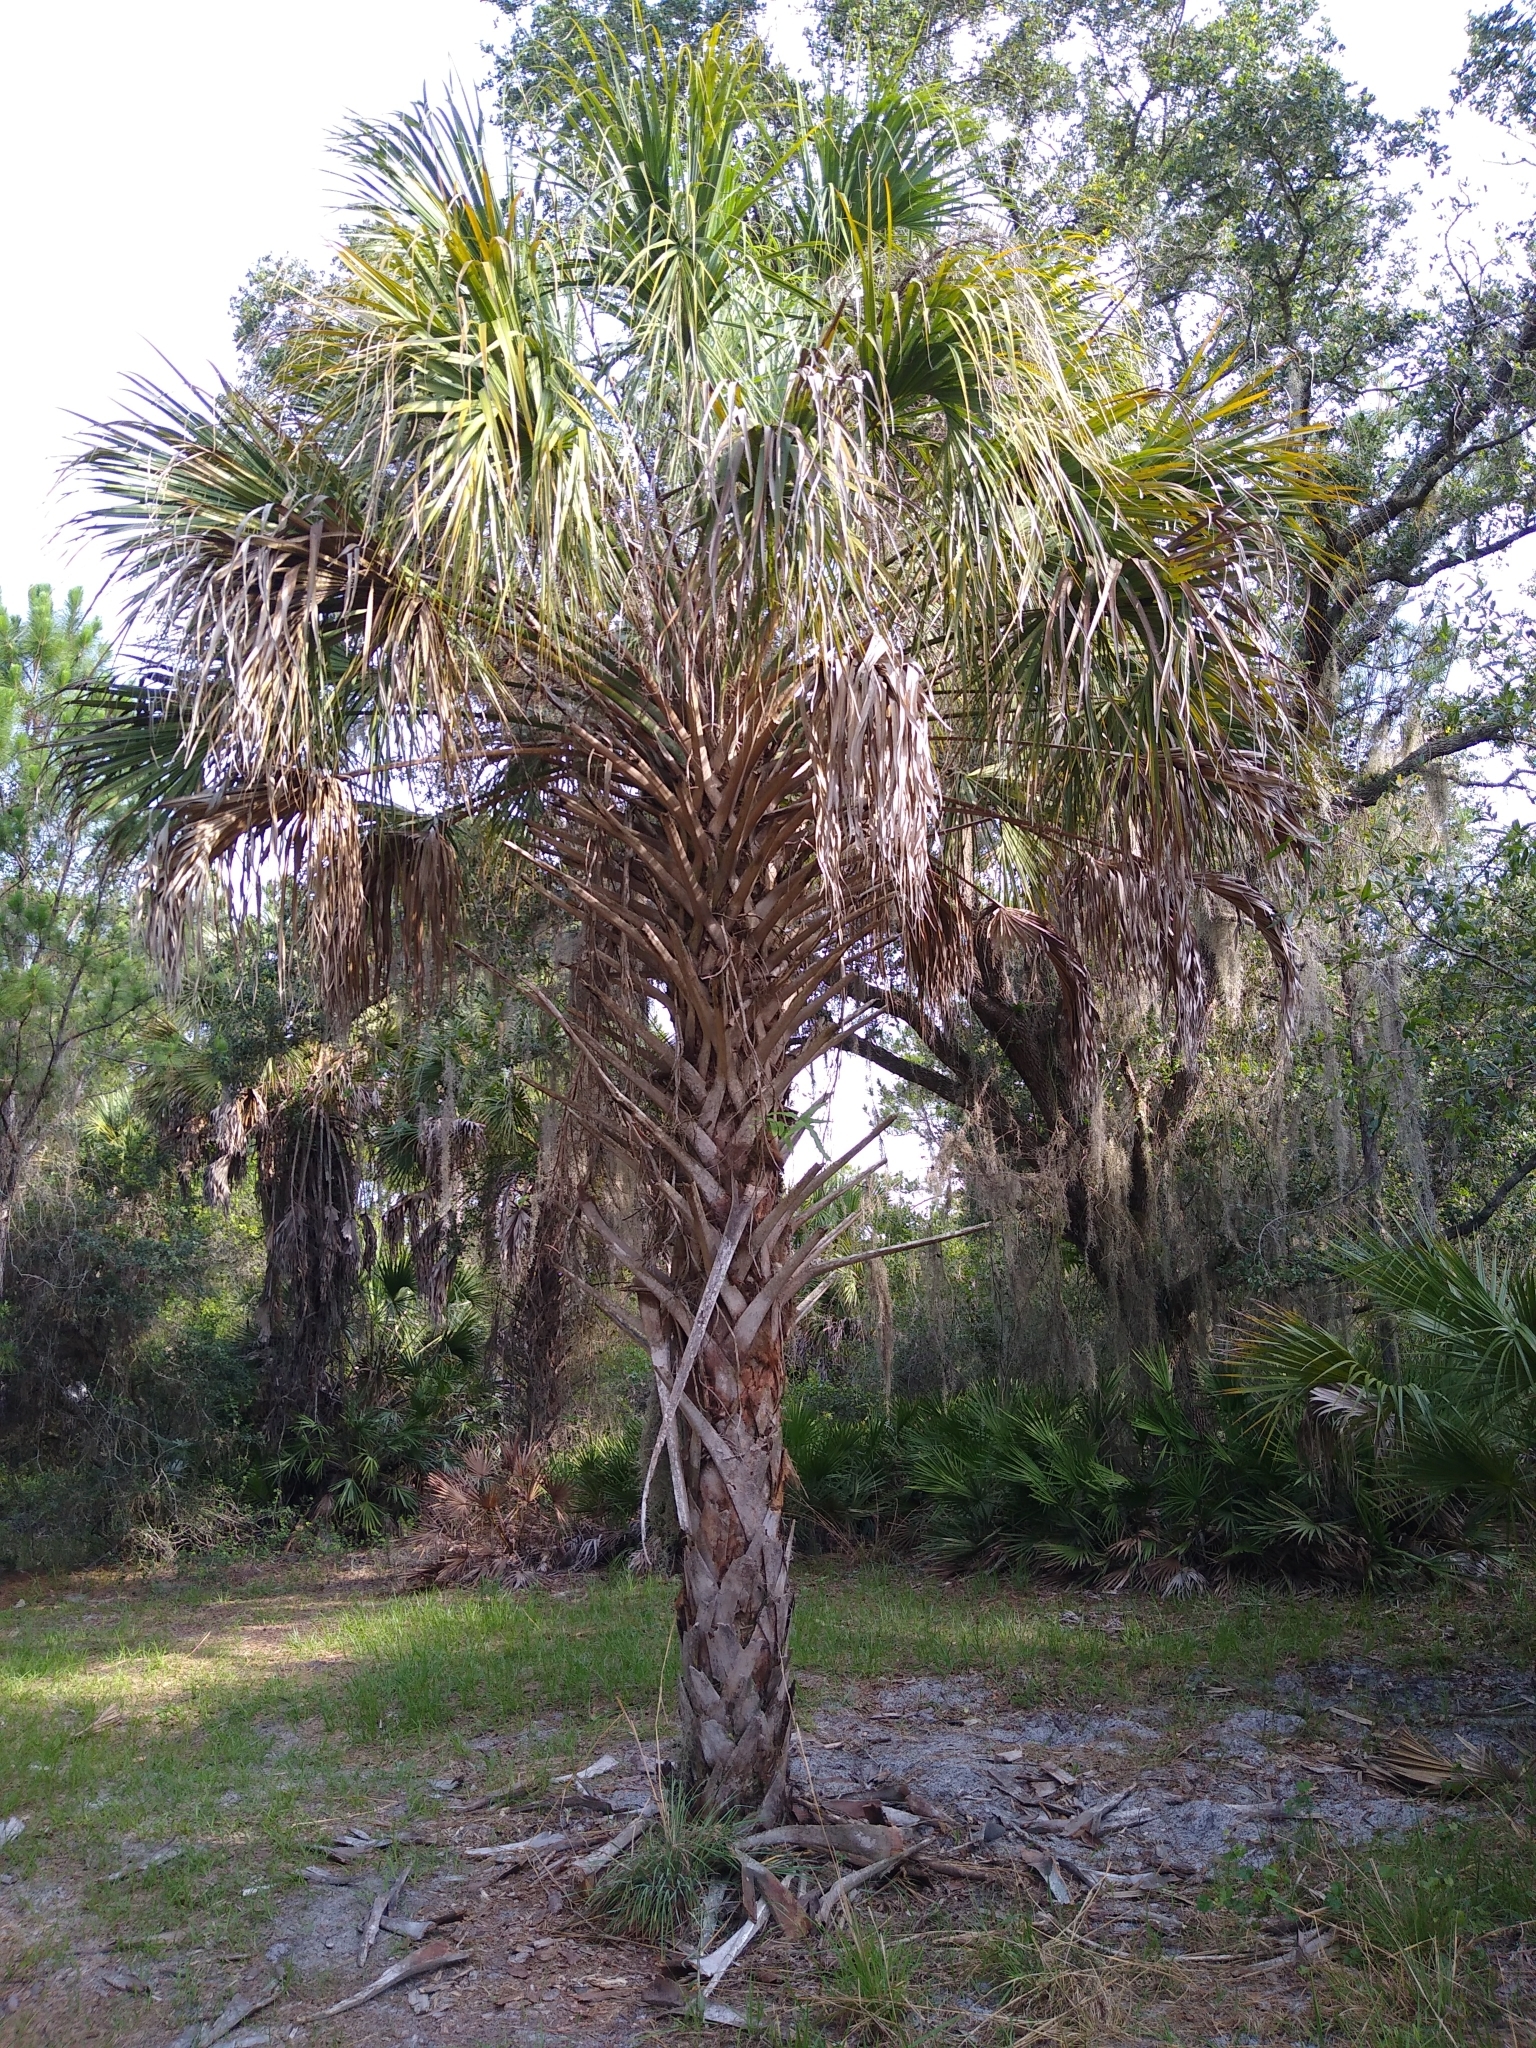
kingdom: Plantae
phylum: Tracheophyta
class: Liliopsida
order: Arecales
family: Arecaceae
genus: Sabal
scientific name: Sabal palmetto
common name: Blue palmetto
